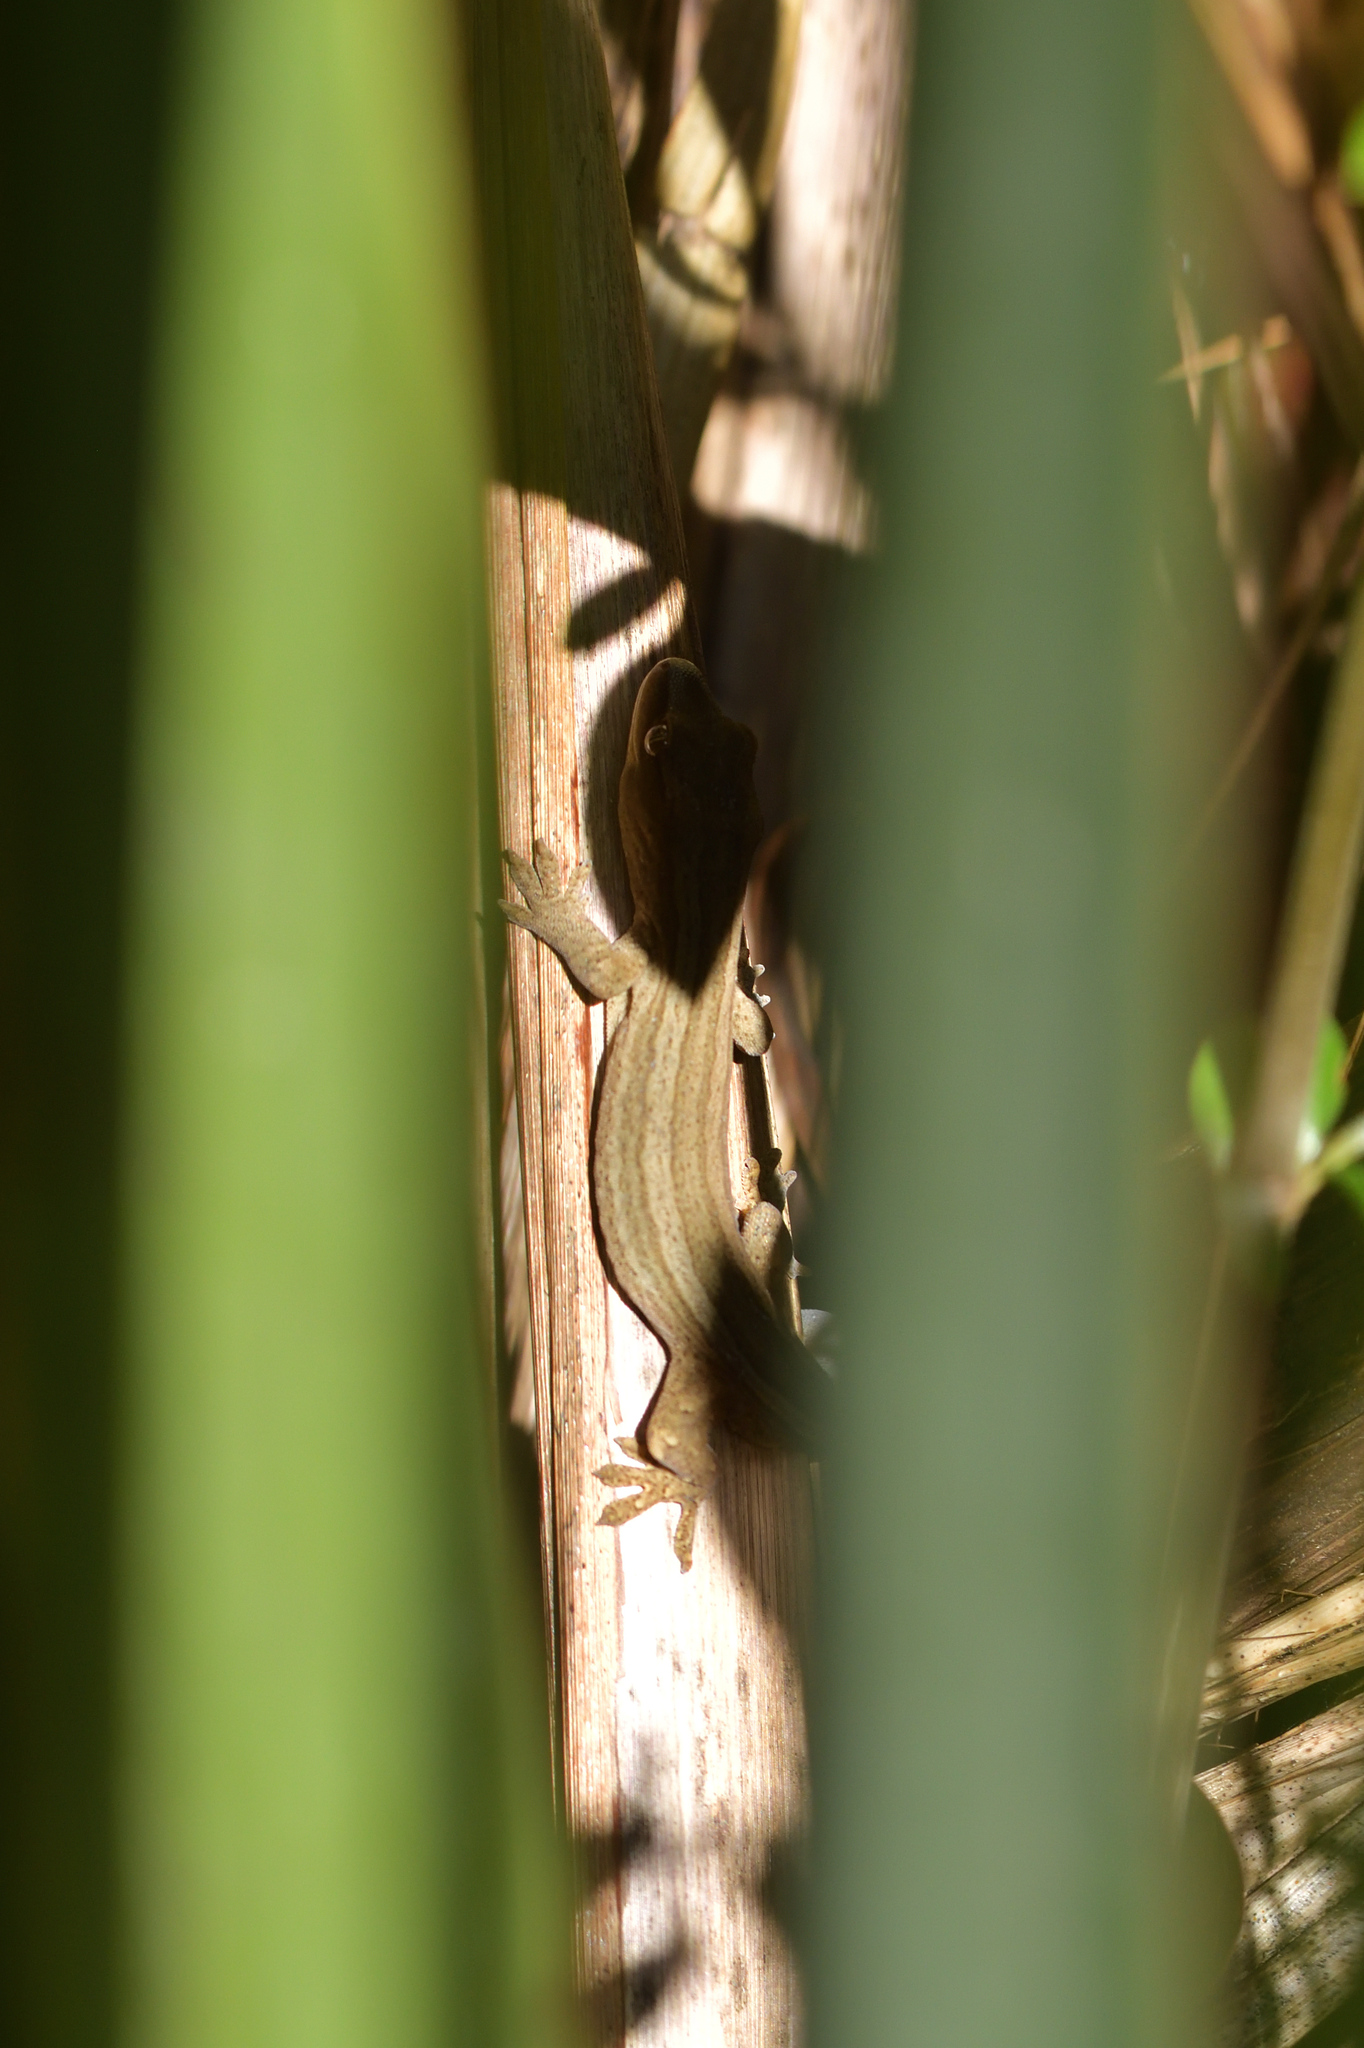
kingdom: Animalia
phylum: Chordata
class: Squamata
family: Diplodactylidae
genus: Woodworthia
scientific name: Woodworthia chrysosiretica
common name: Gold-striped gecko
